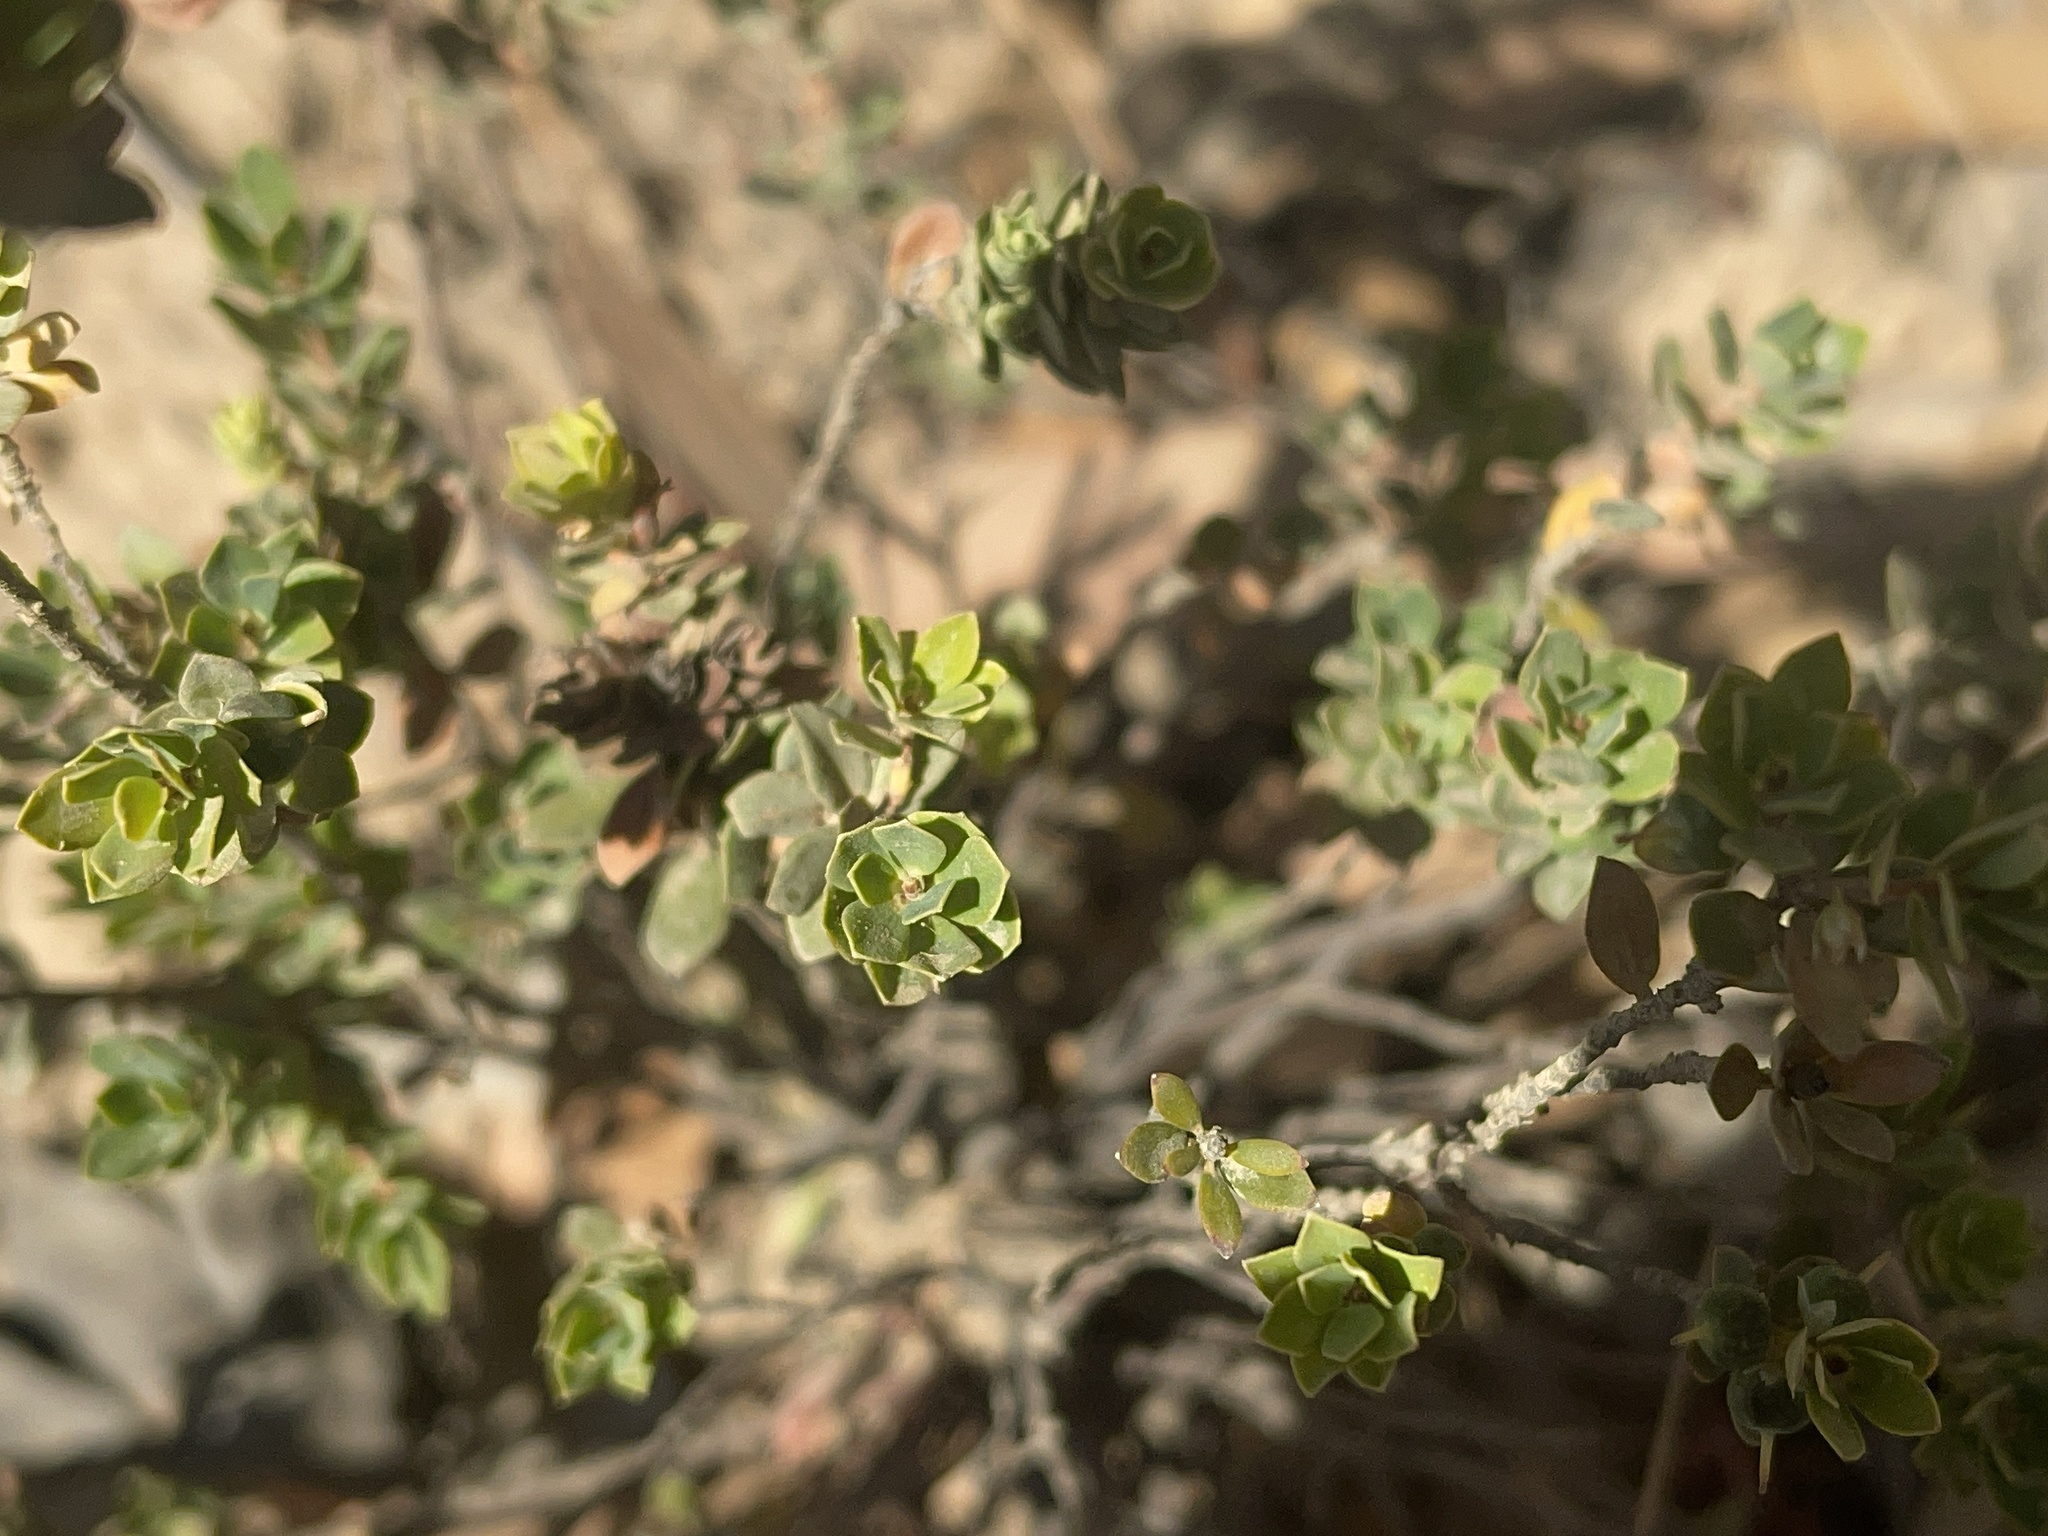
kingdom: Plantae
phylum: Tracheophyta
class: Magnoliopsida
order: Ericales
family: Ericaceae
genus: Brachyloma
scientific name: Brachyloma daphnoides
